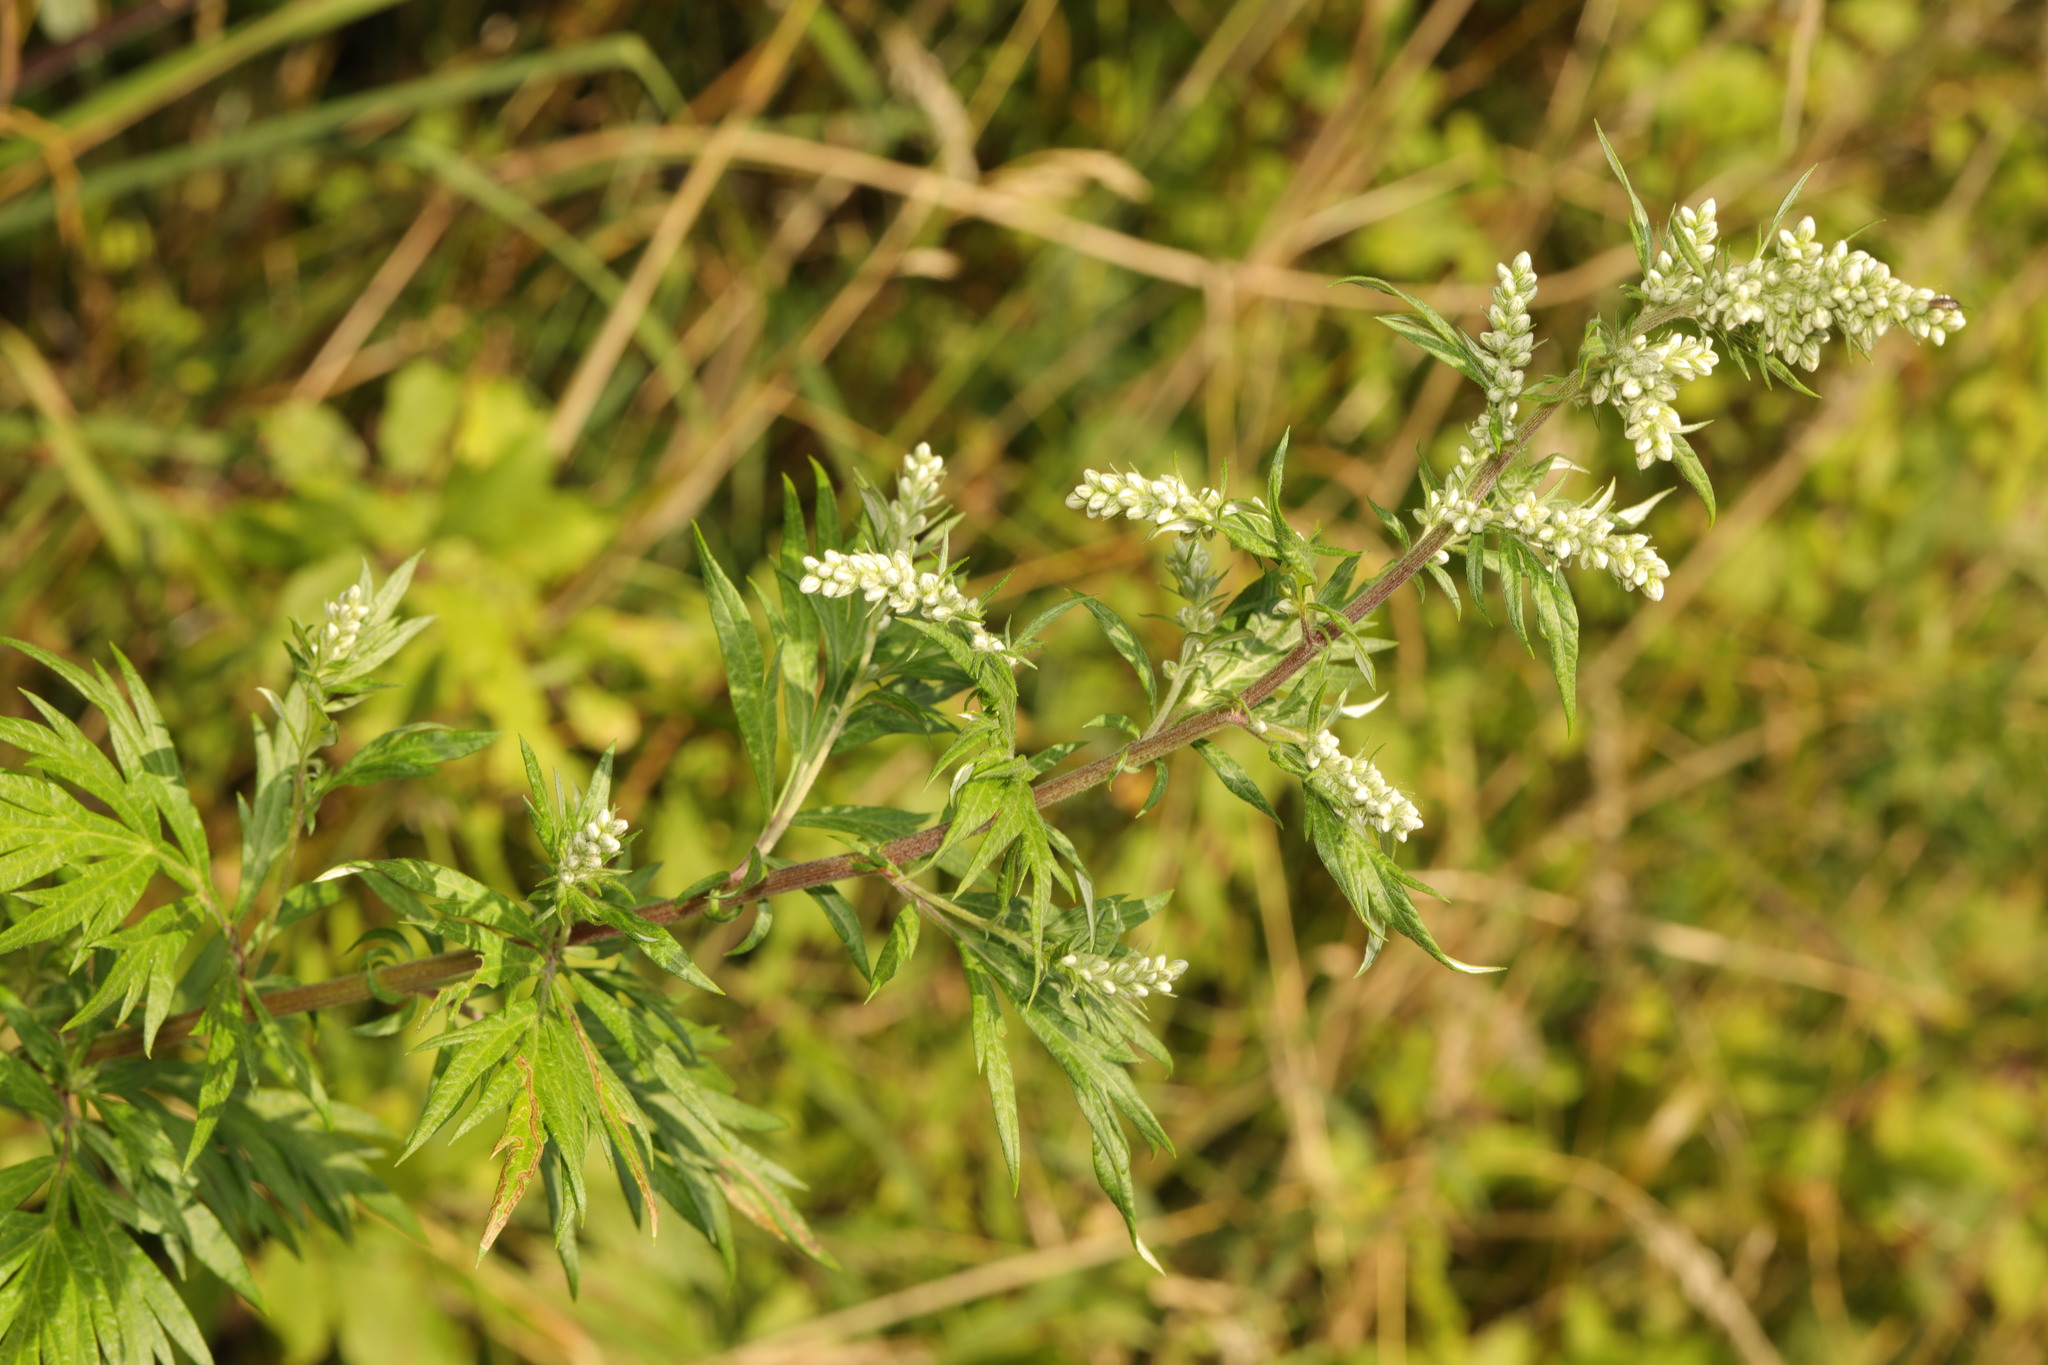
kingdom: Plantae
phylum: Tracheophyta
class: Magnoliopsida
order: Asterales
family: Asteraceae
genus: Artemisia
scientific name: Artemisia vulgaris
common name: Mugwort
